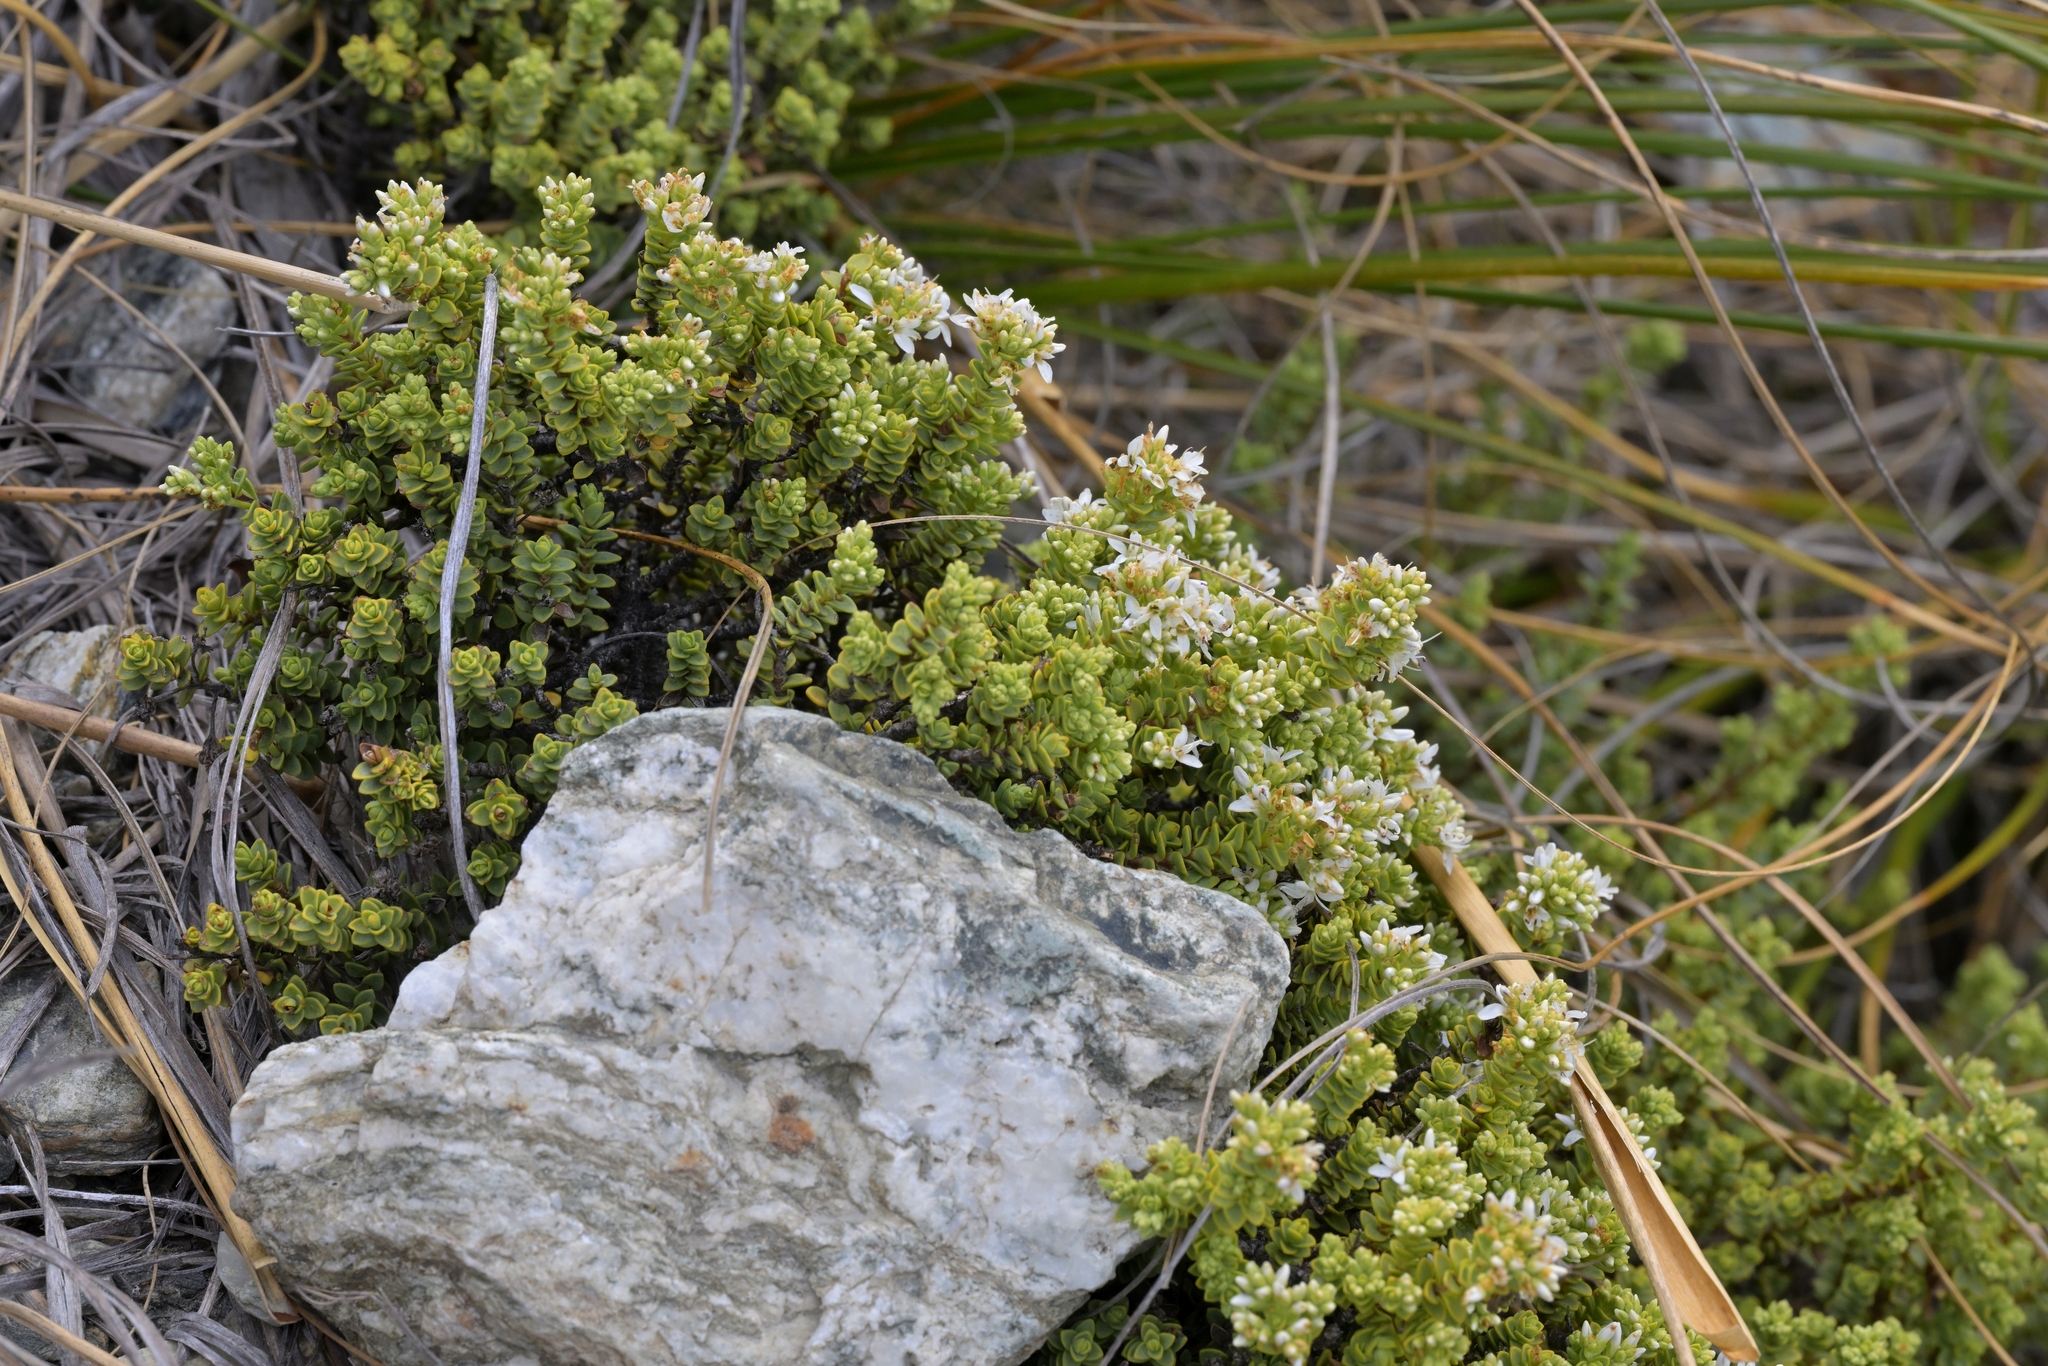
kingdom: Plantae
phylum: Tracheophyta
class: Magnoliopsida
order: Lamiales
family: Plantaginaceae
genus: Veronica
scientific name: Veronica buchananii
